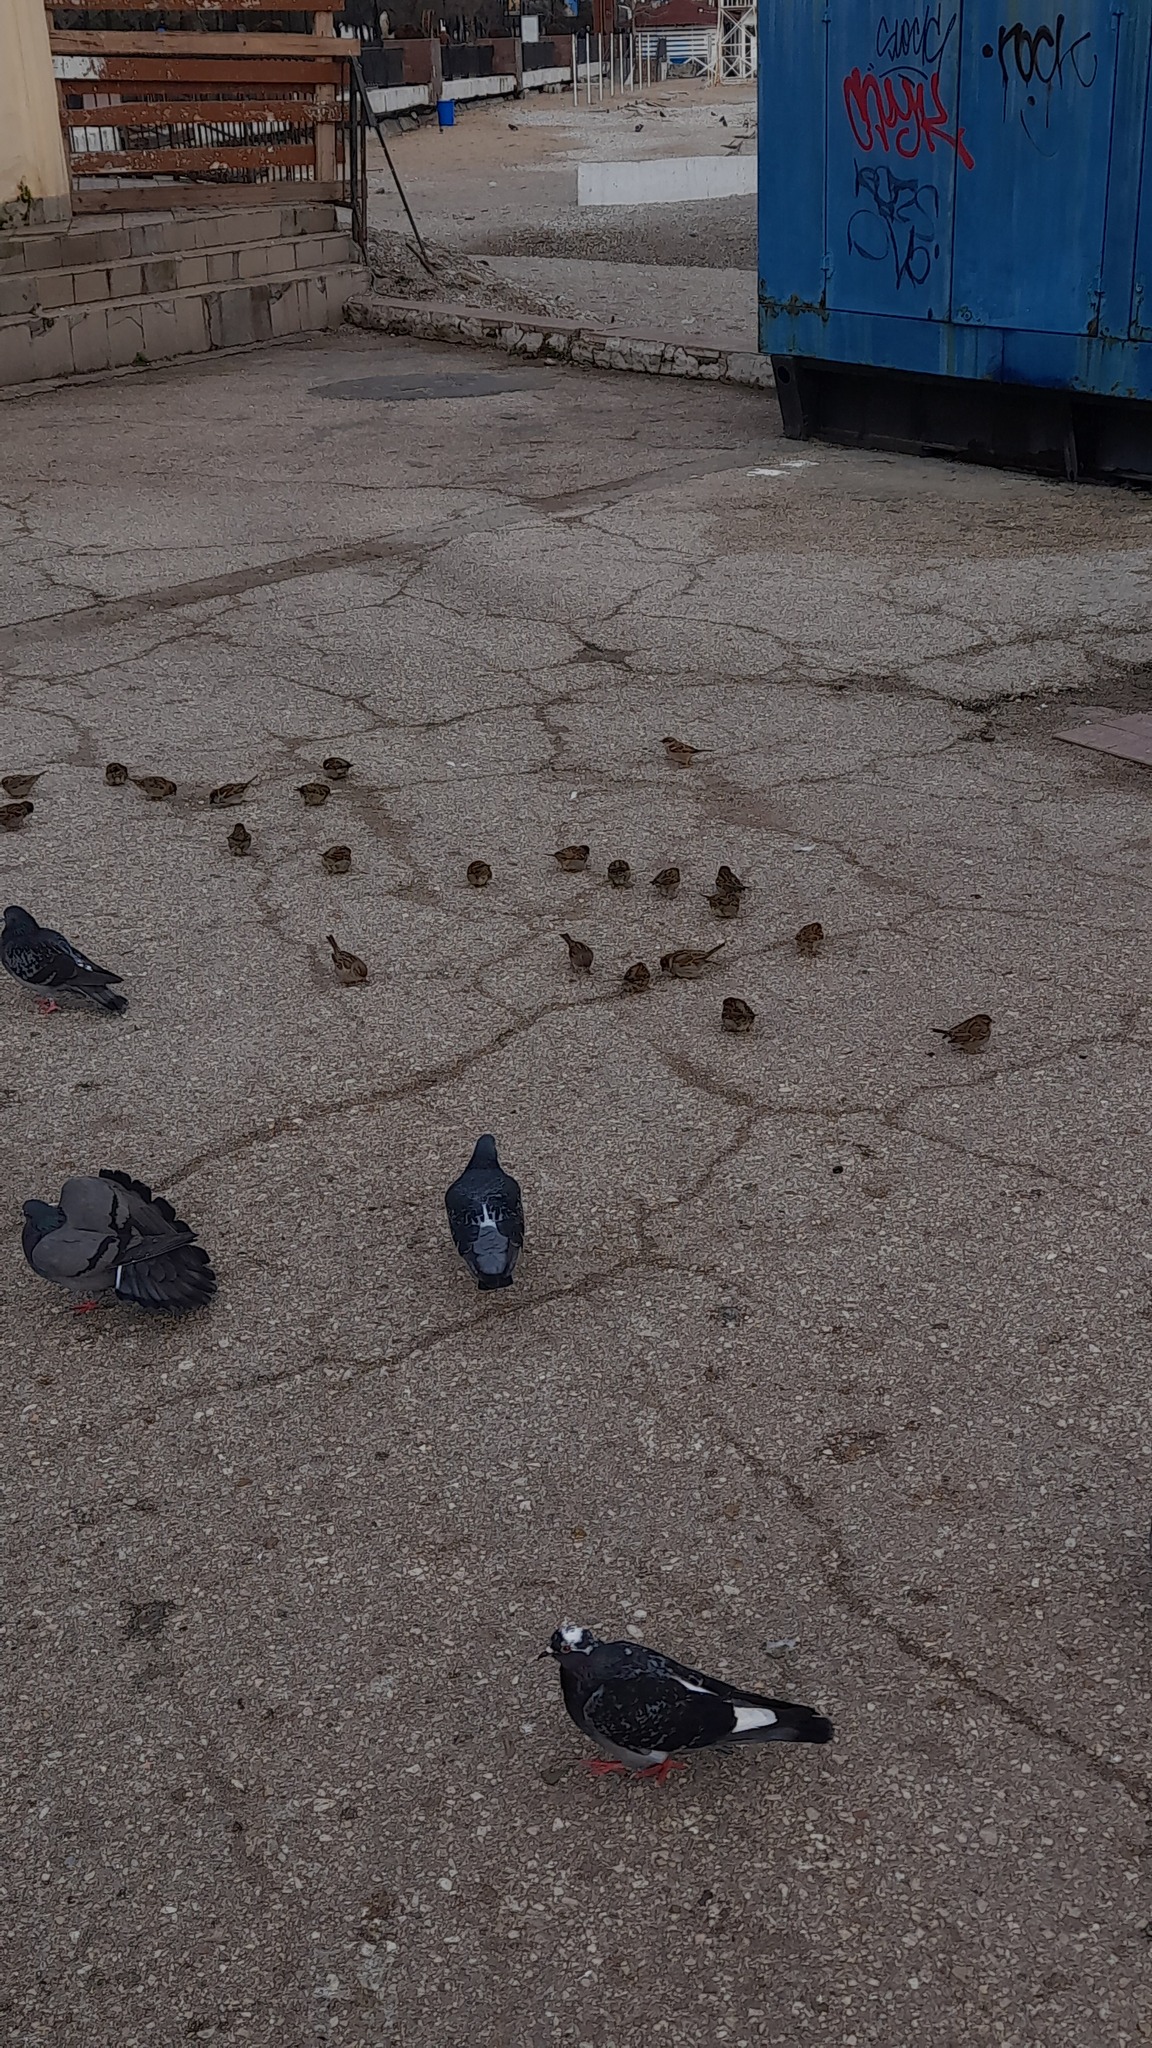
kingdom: Animalia
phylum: Chordata
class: Aves
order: Passeriformes
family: Passeridae
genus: Passer
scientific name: Passer domesticus
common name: House sparrow
